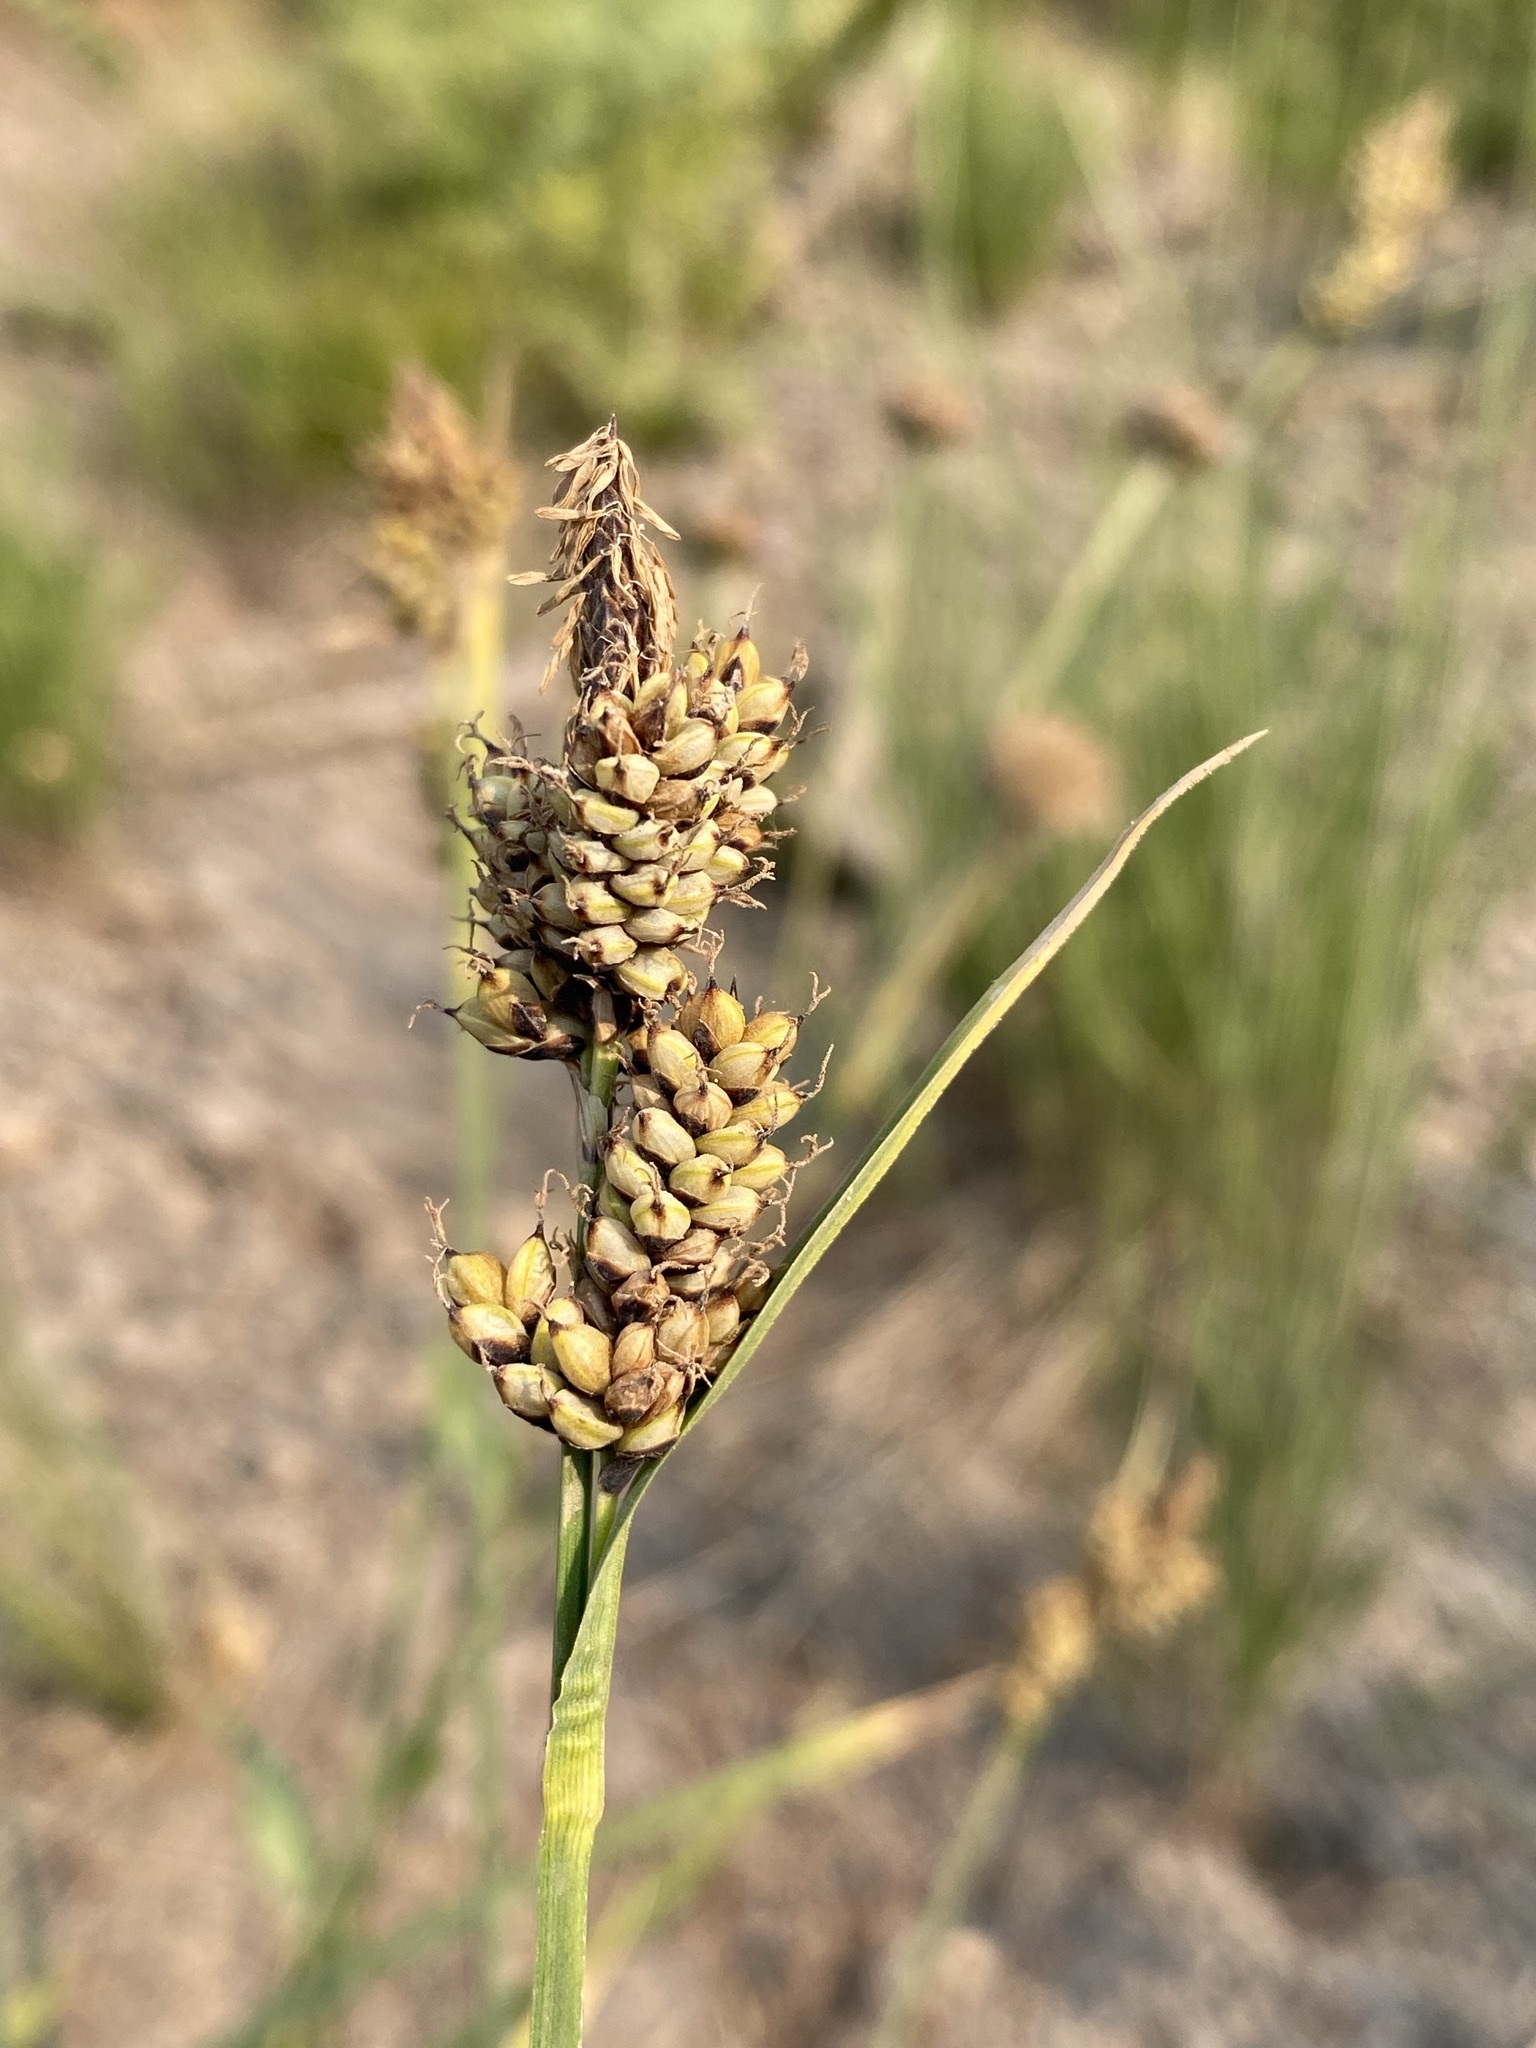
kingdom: Plantae
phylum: Tracheophyta
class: Liliopsida
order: Poales
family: Cyperaceae
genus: Carex
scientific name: Carex raynoldsii
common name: Raynolds' sedge
